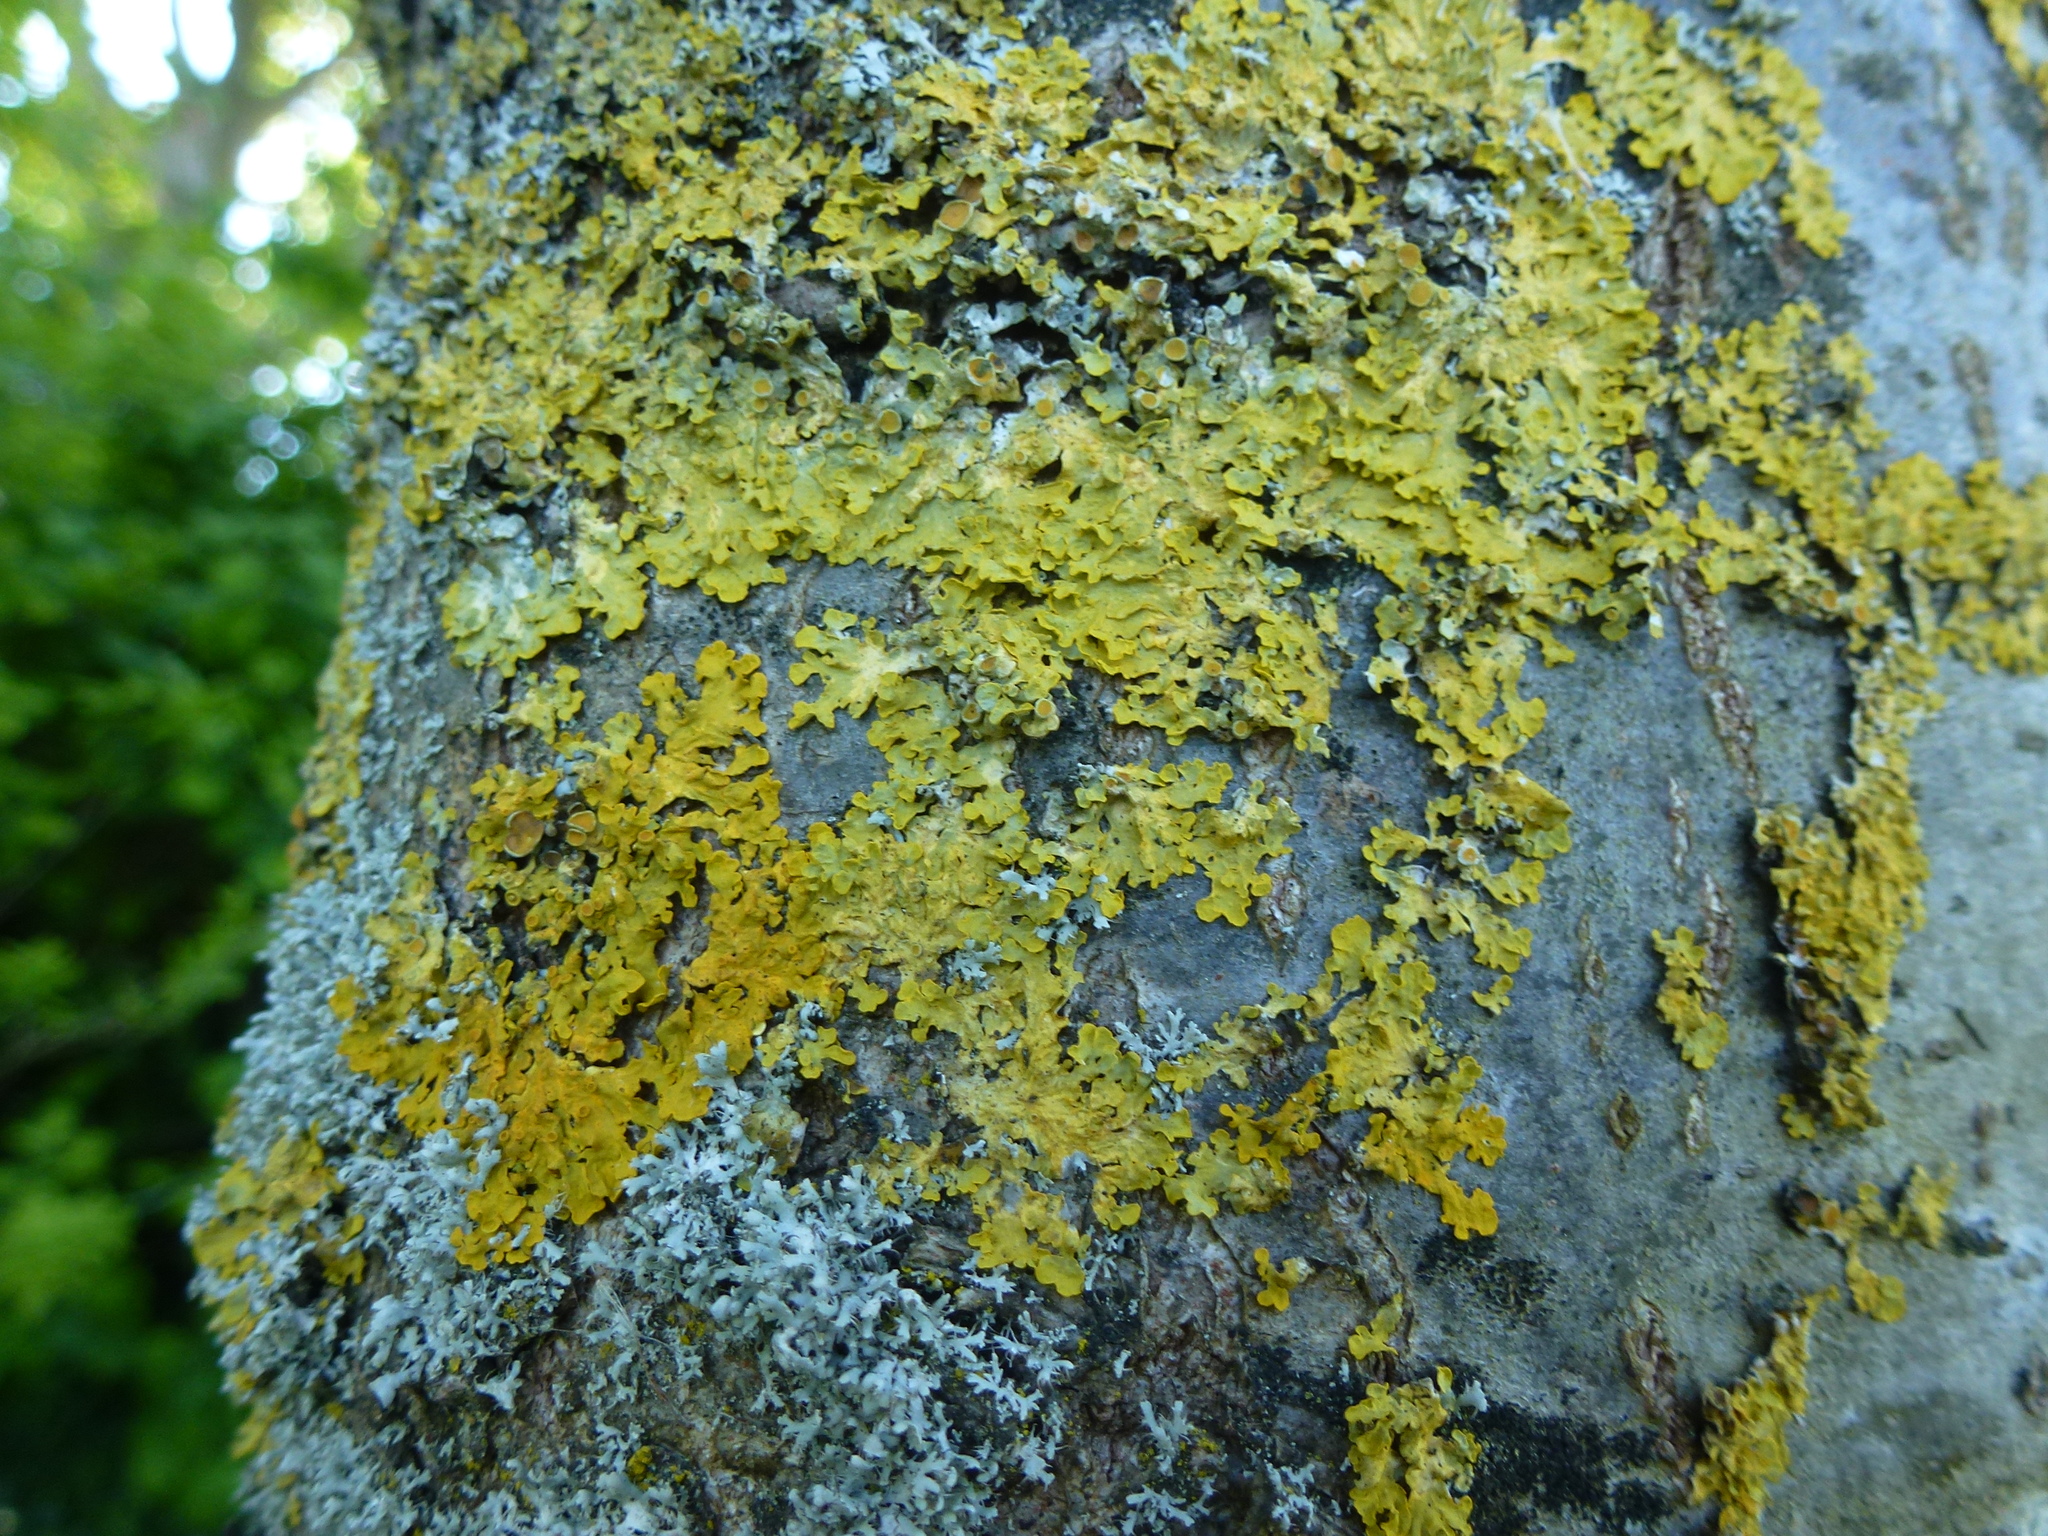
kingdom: Fungi
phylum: Ascomycota
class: Lecanoromycetes
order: Teloschistales
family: Teloschistaceae
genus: Xanthoria
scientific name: Xanthoria parietina
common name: Common orange lichen
